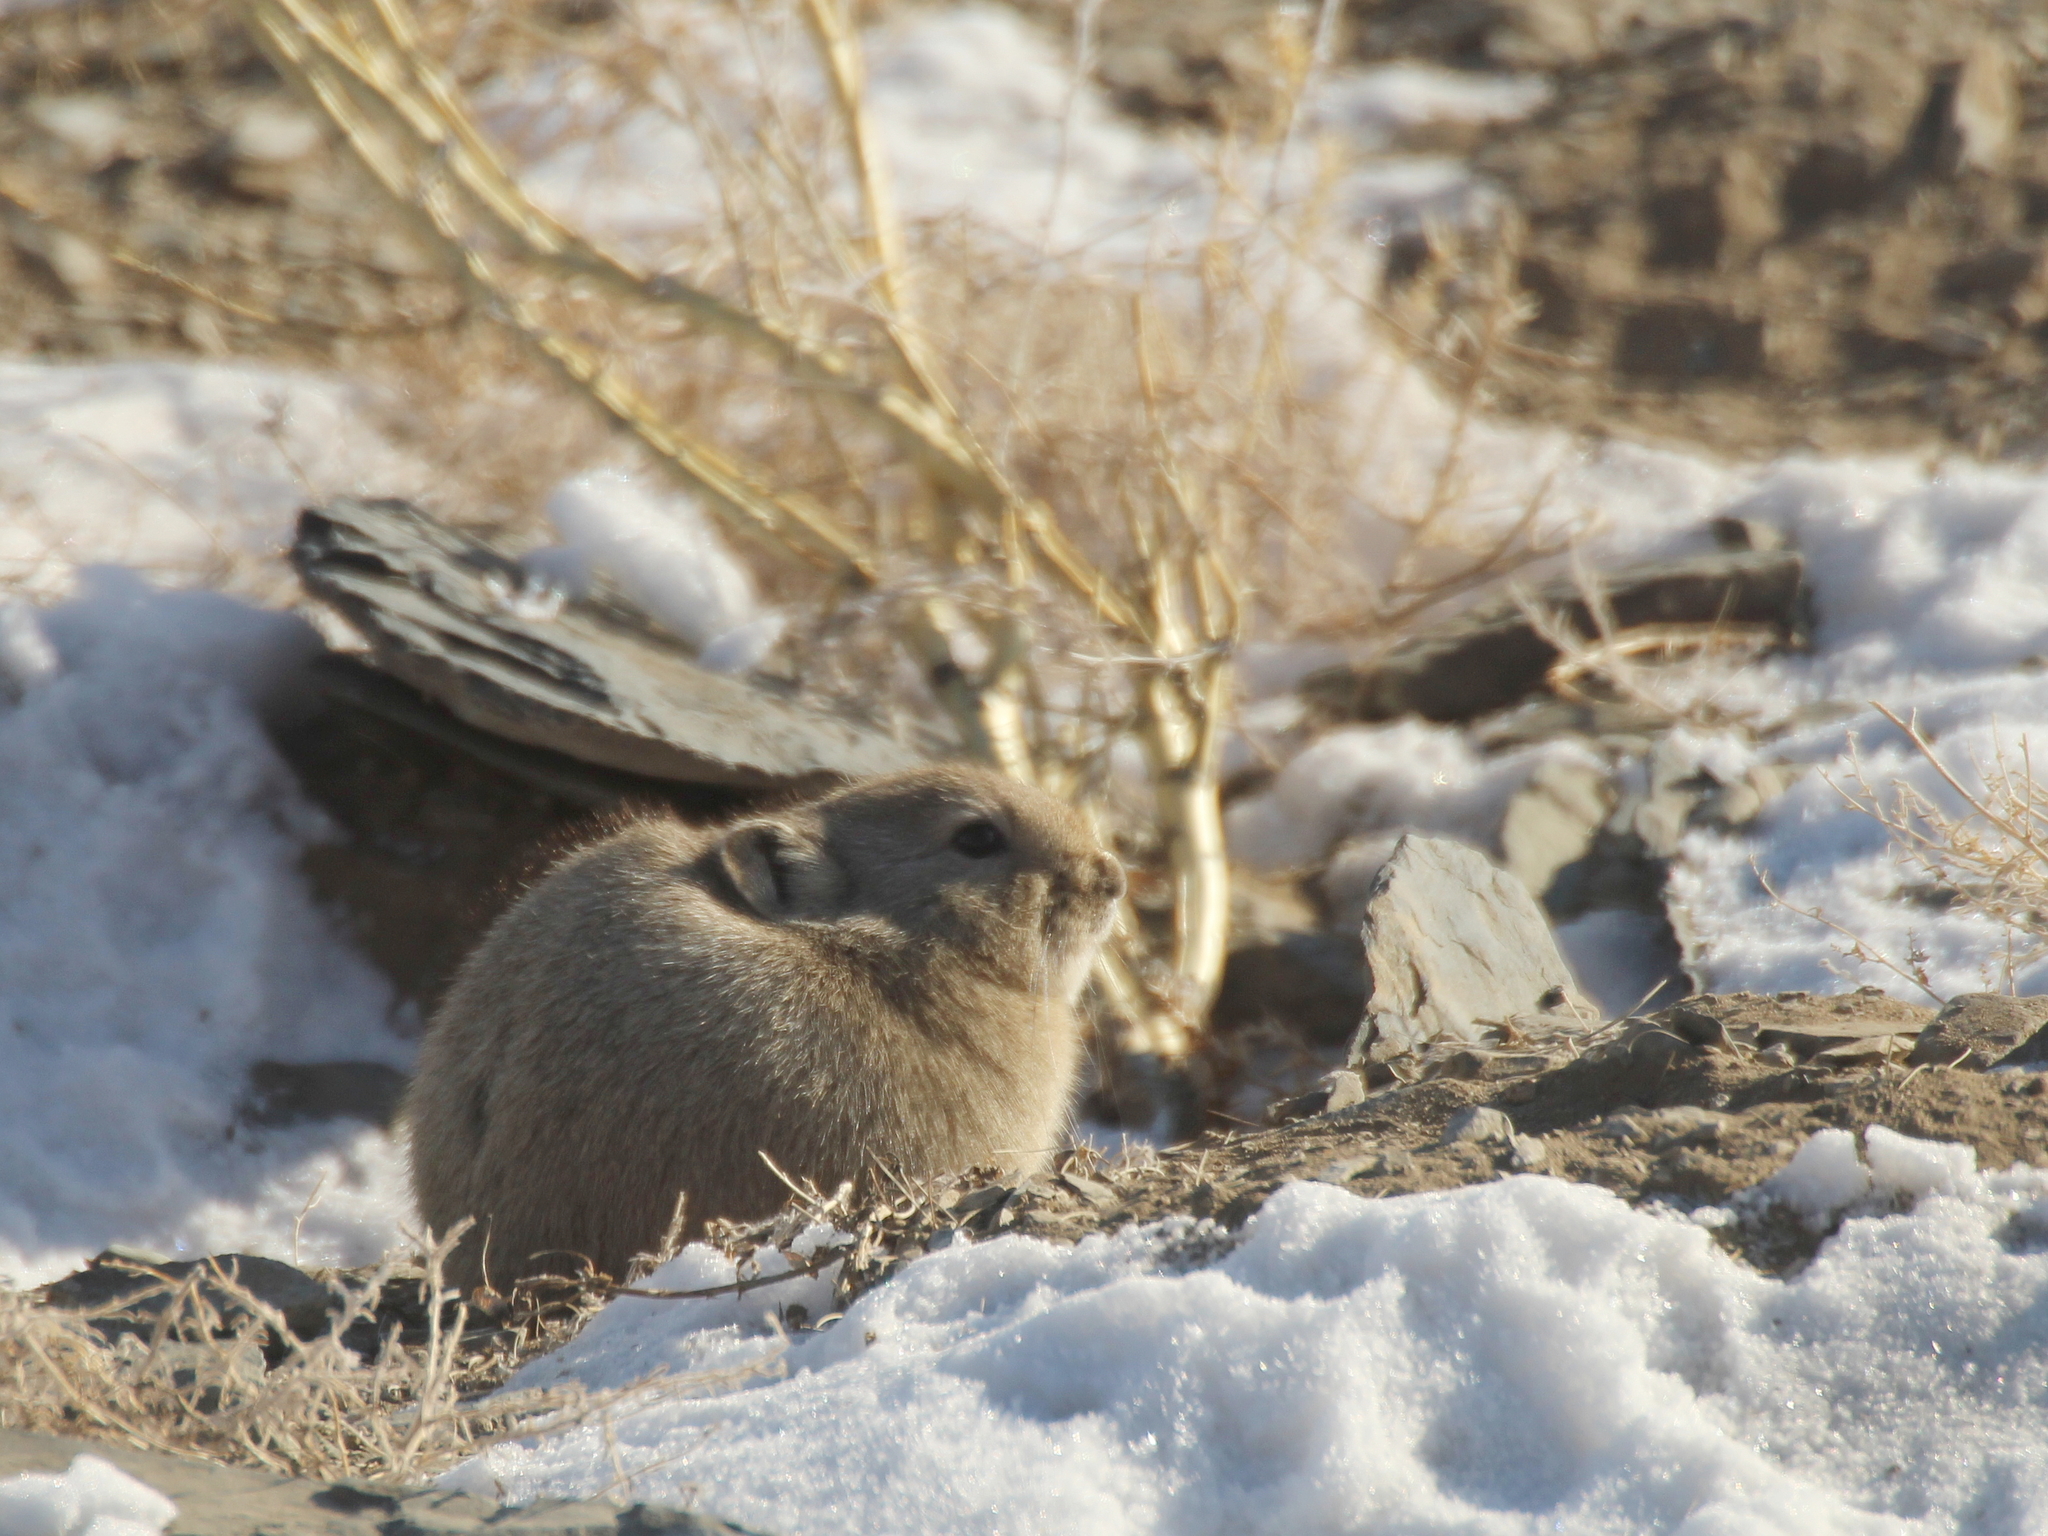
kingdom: Animalia
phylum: Chordata
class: Mammalia
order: Lagomorpha
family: Ochotonidae
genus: Ochotona
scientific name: Ochotona dauurica
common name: Daurian pika
